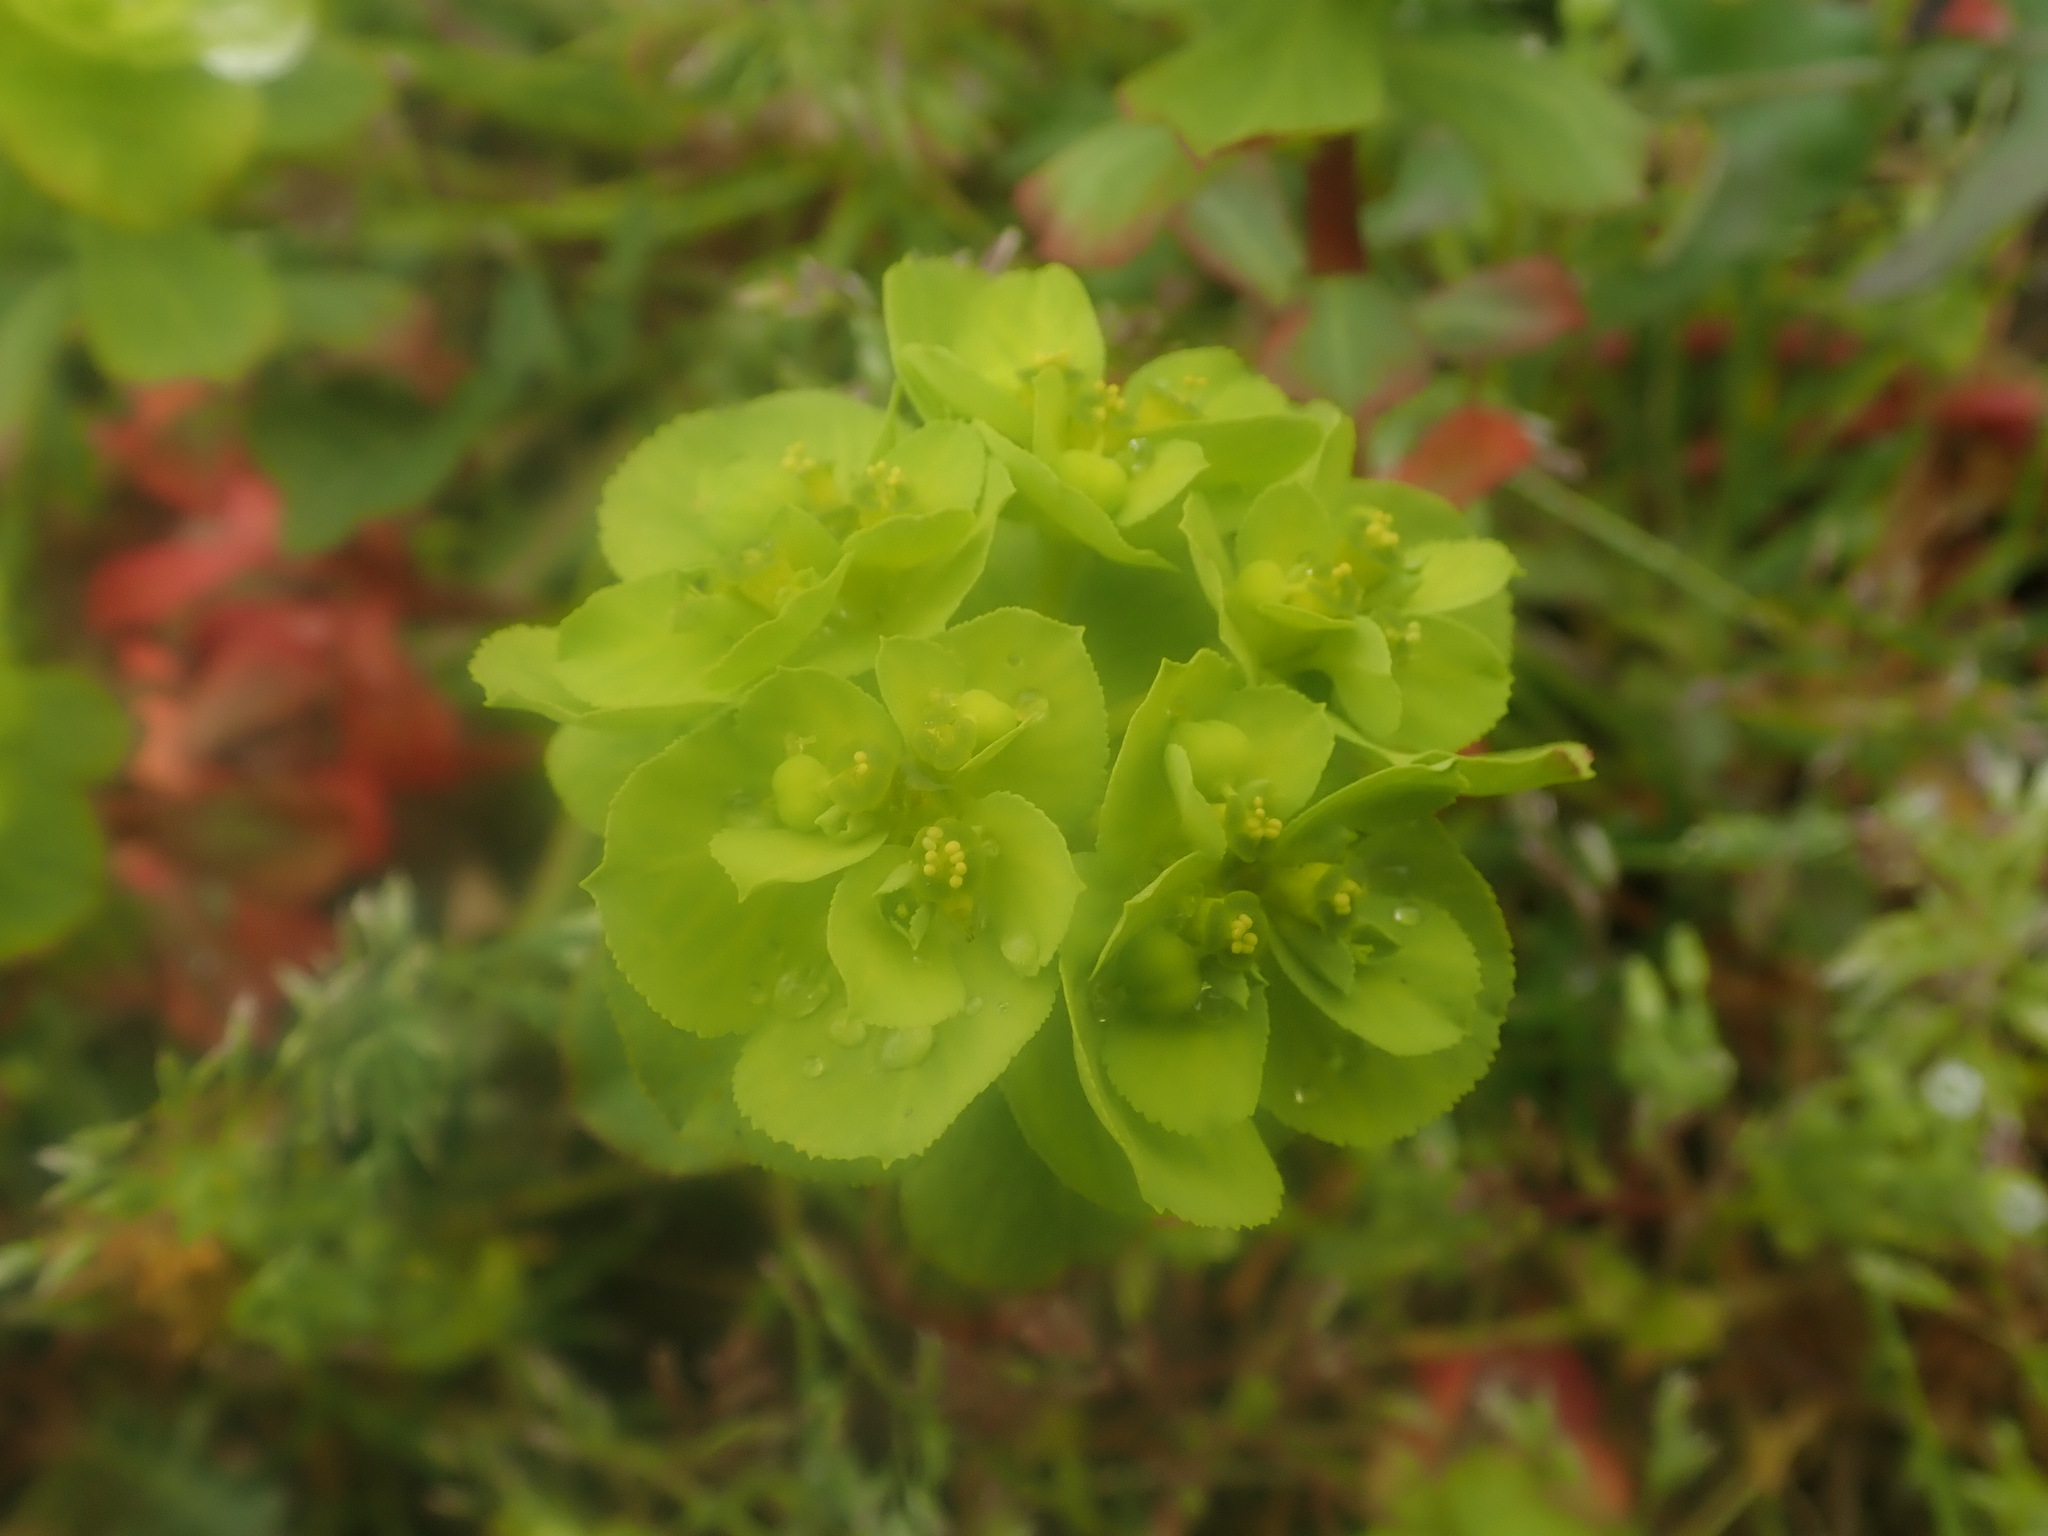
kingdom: Plantae
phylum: Tracheophyta
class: Magnoliopsida
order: Malpighiales
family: Euphorbiaceae
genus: Euphorbia
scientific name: Euphorbia helioscopia
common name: Sun spurge
